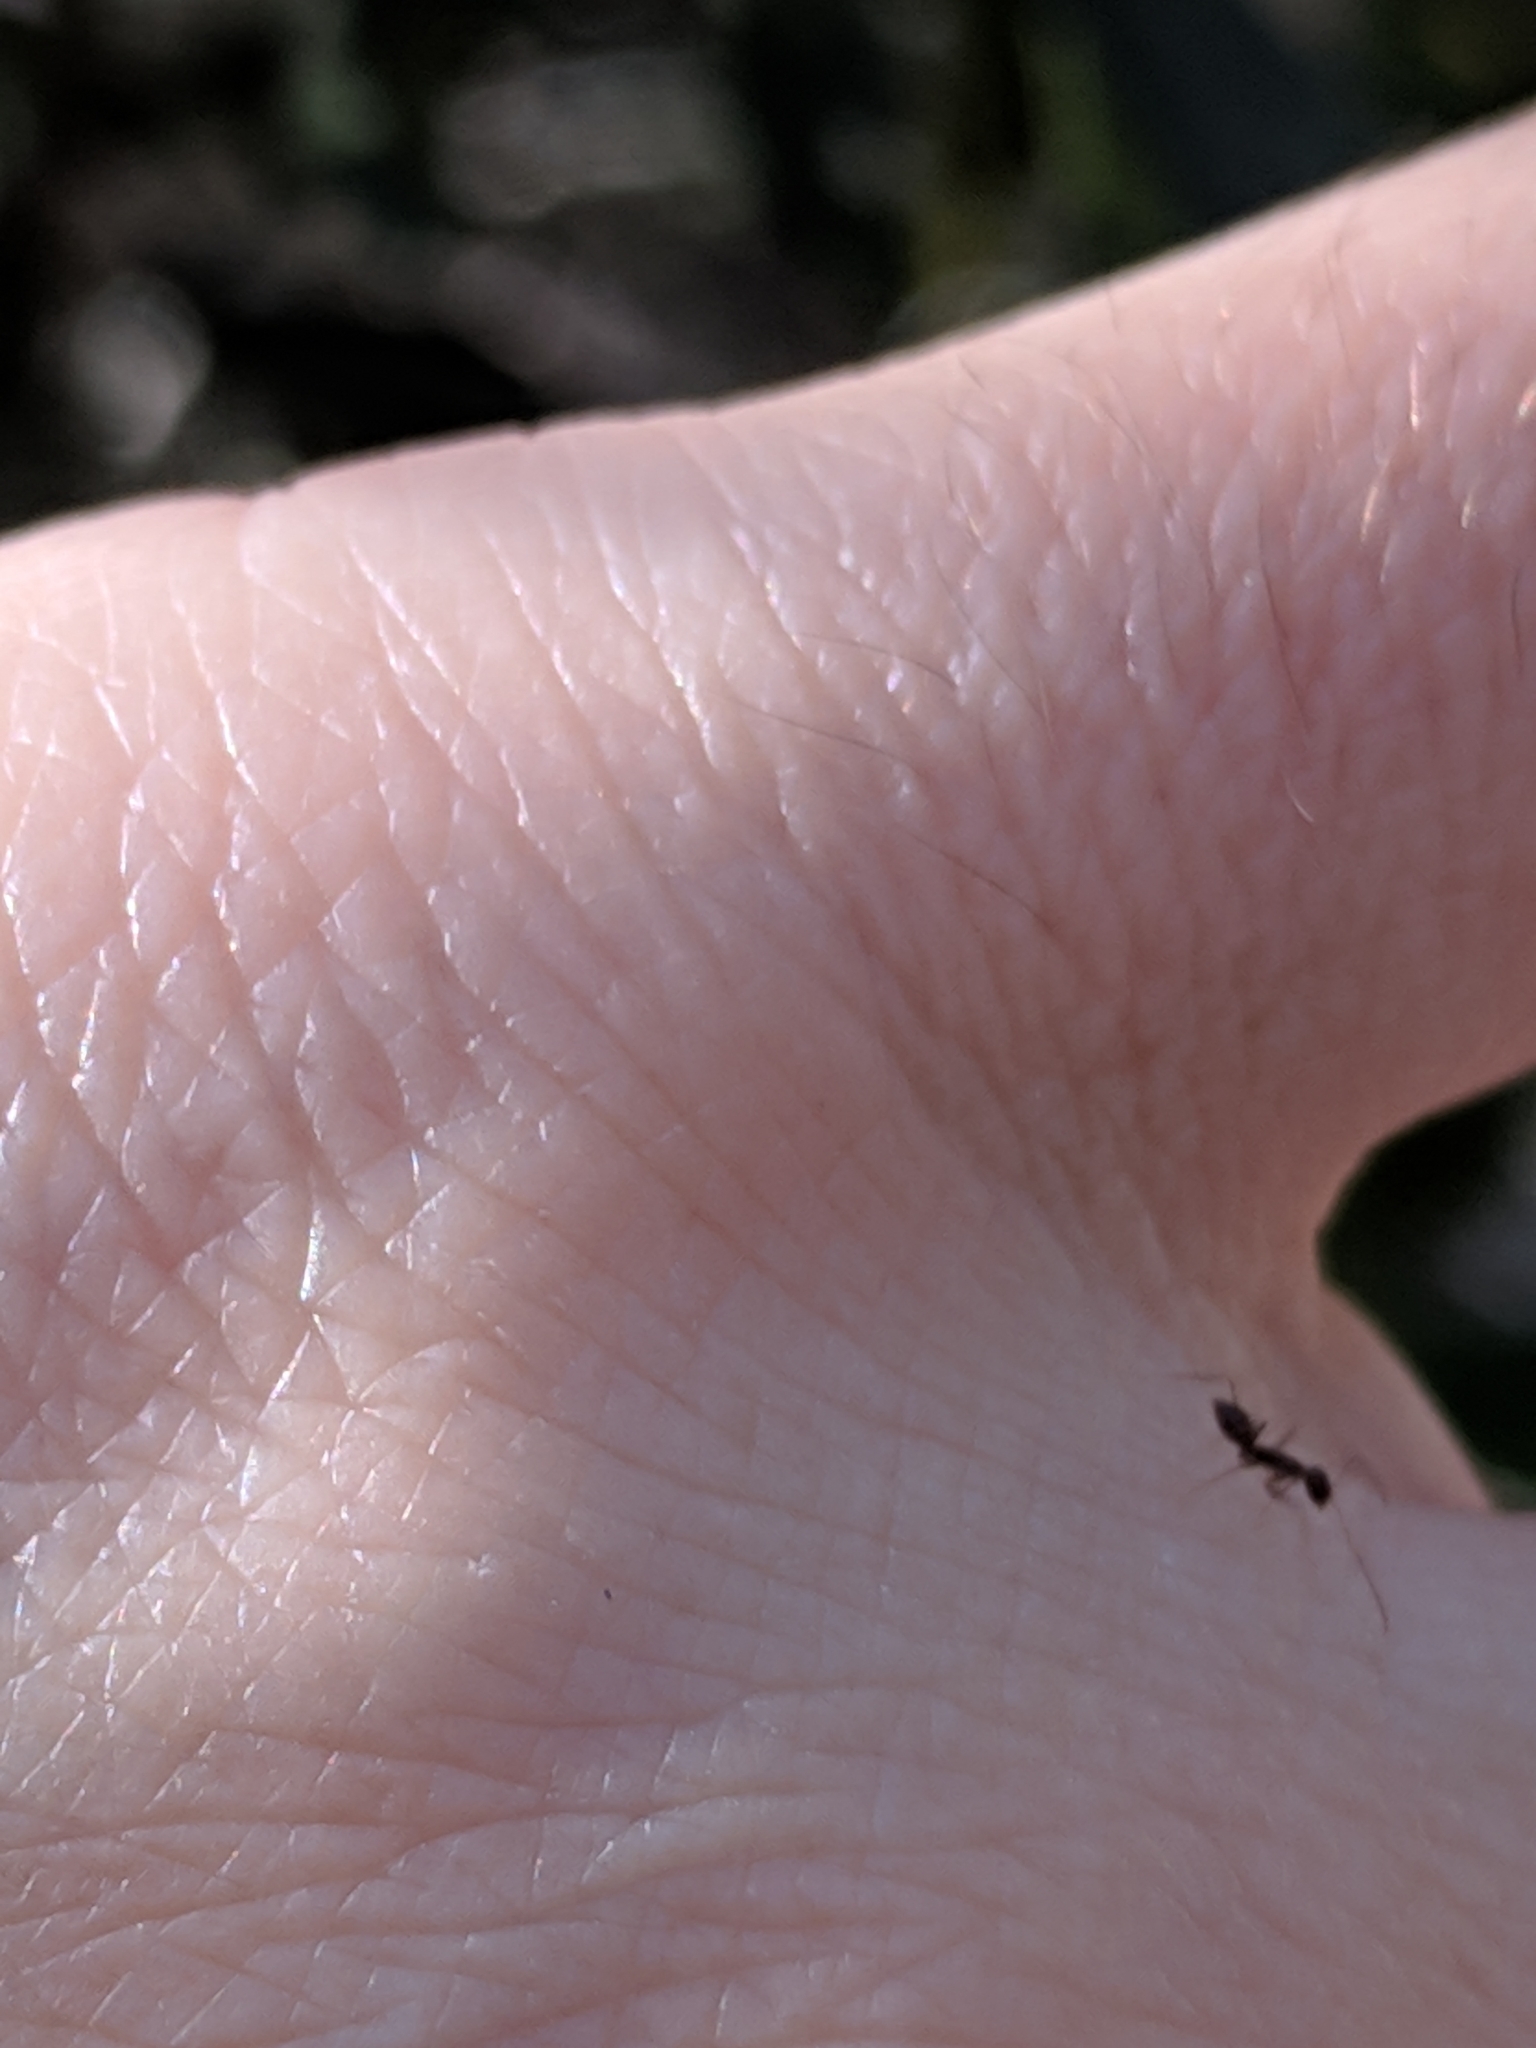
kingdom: Animalia
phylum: Arthropoda
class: Insecta
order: Hymenoptera
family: Formicidae
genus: Paratrechina
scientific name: Paratrechina longicornis
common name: Longhorned crazy ant
